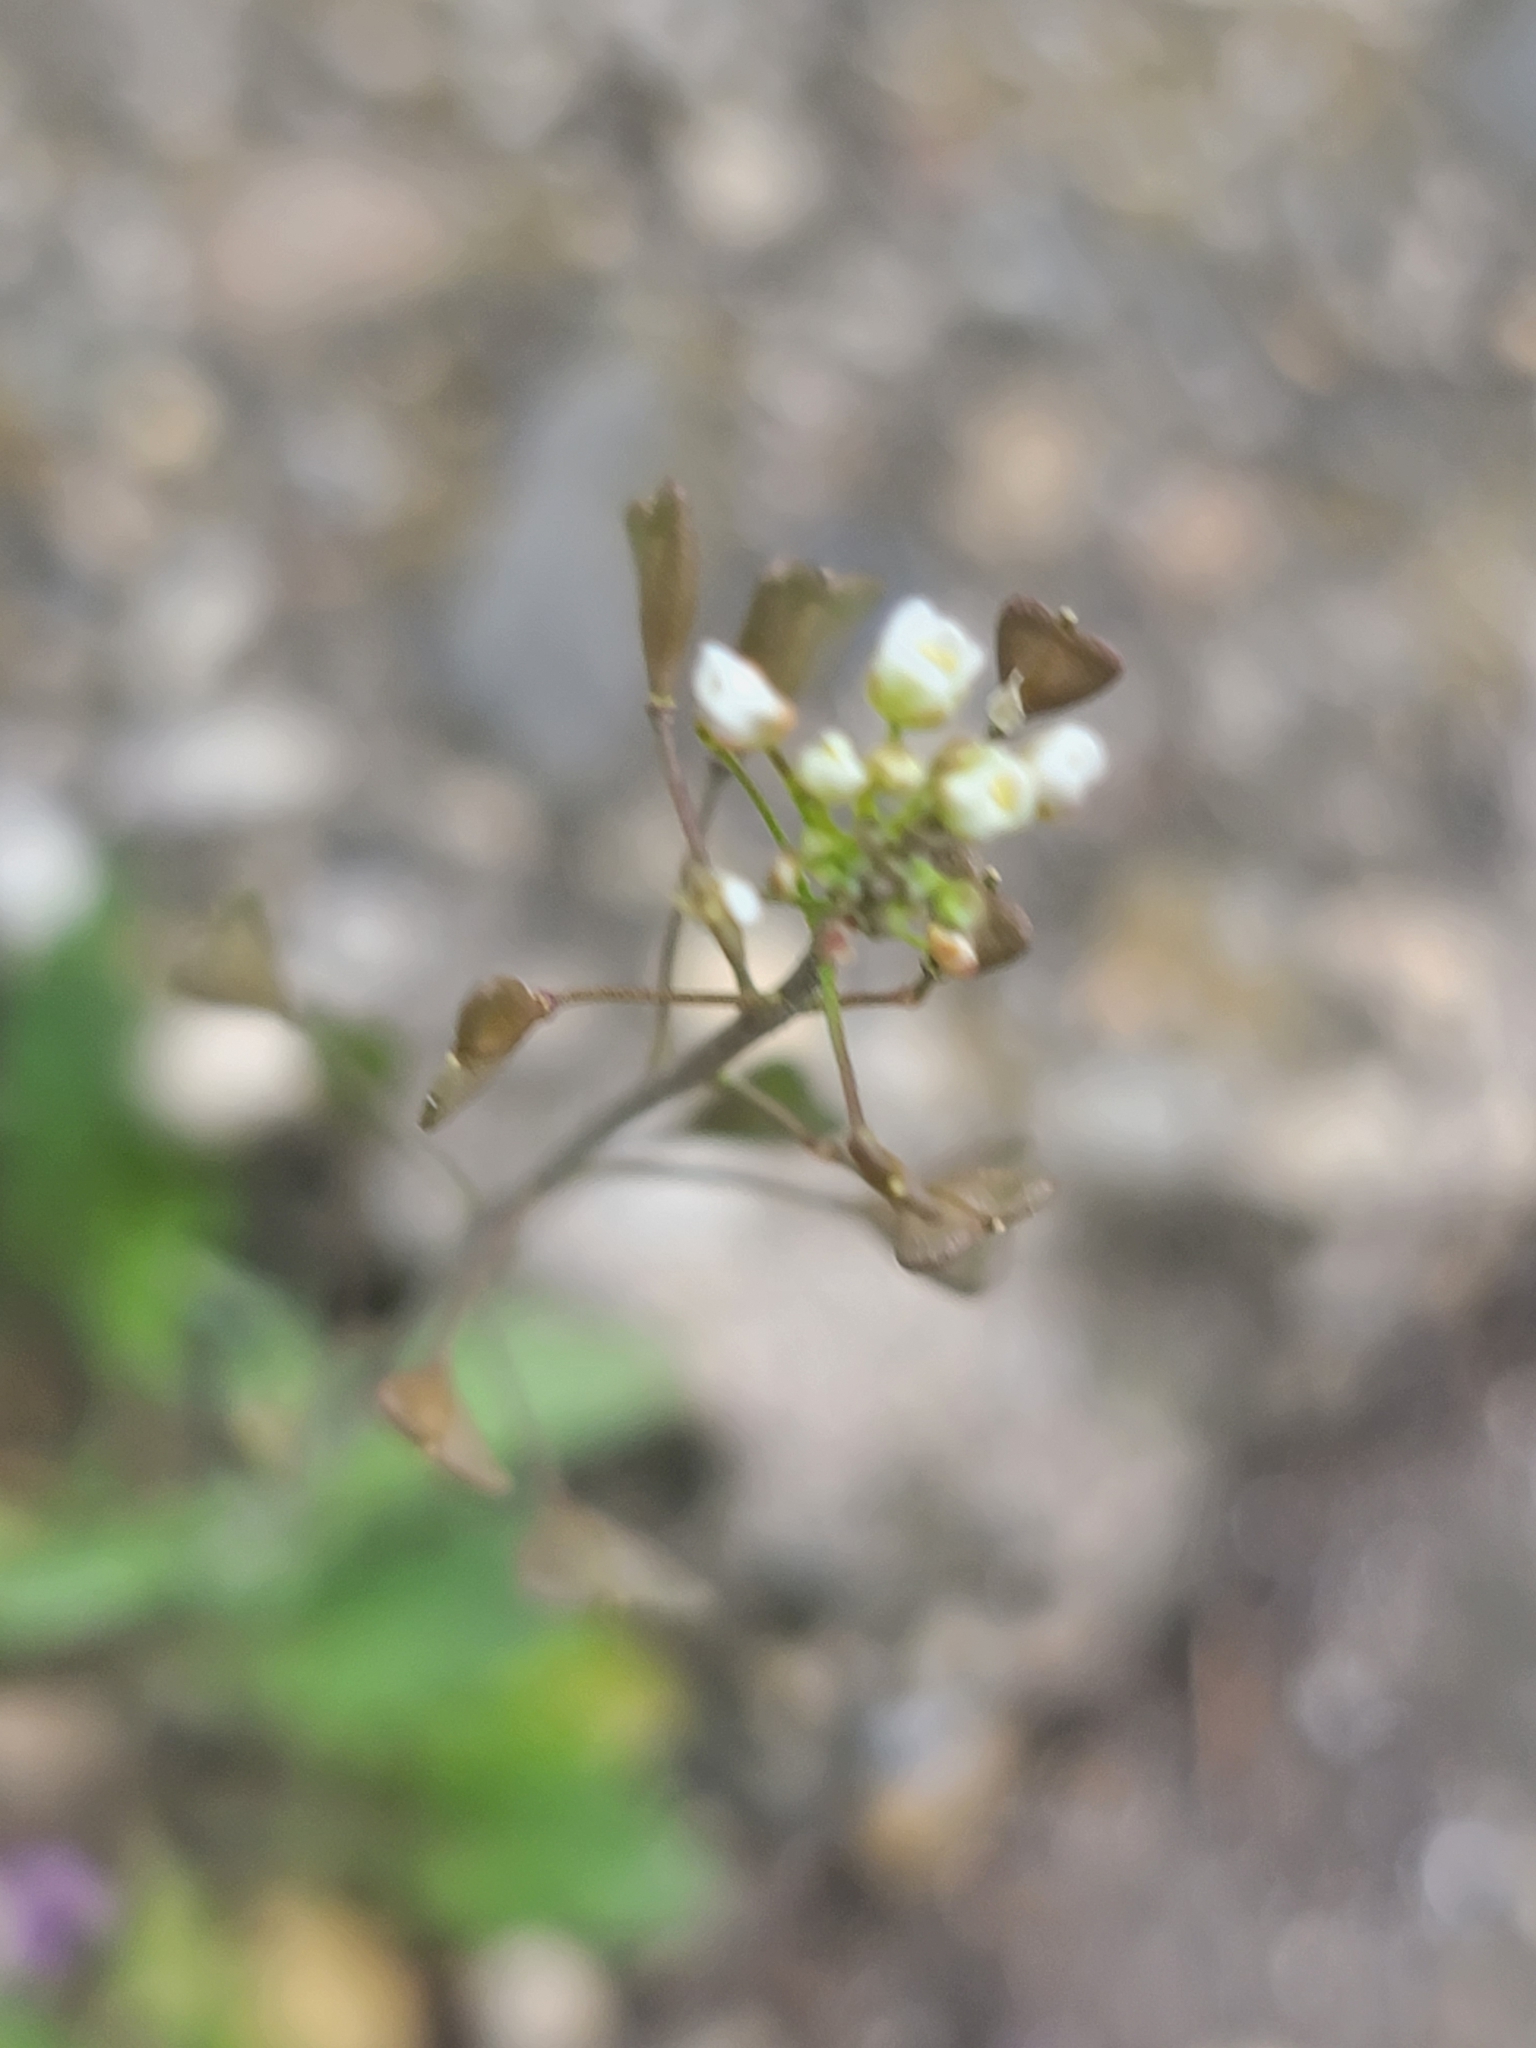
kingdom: Plantae
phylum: Tracheophyta
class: Magnoliopsida
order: Brassicales
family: Brassicaceae
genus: Capsella
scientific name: Capsella bursa-pastoris
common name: Shepherd's purse
